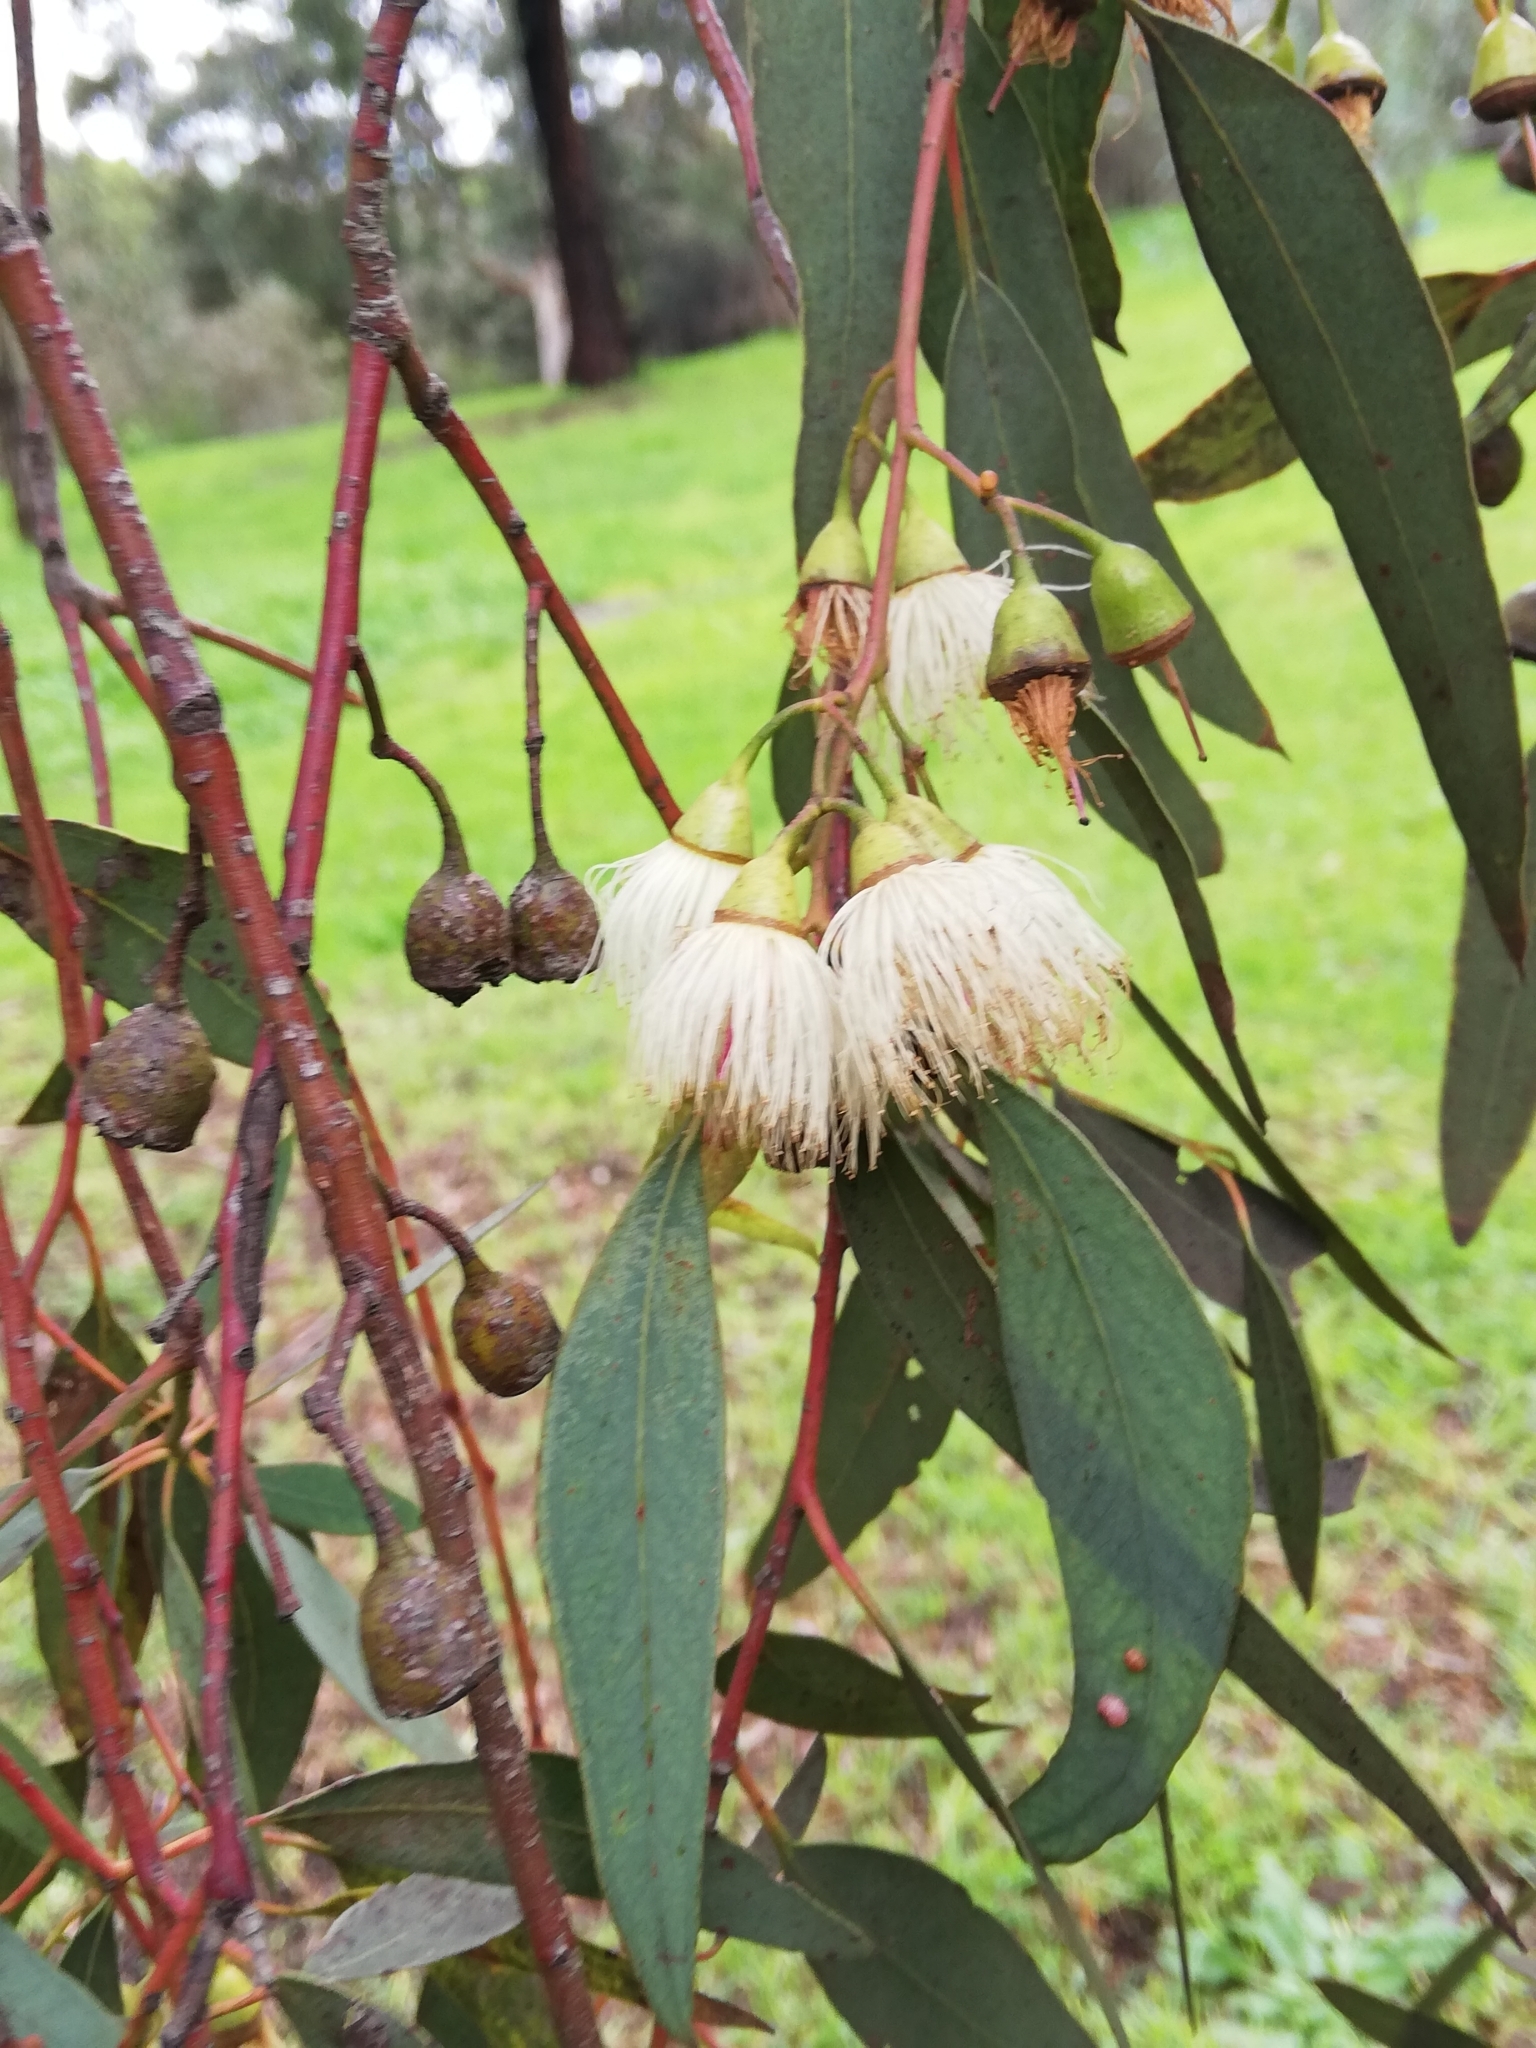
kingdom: Plantae
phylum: Tracheophyta
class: Magnoliopsida
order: Myrtales
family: Myrtaceae
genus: Eucalyptus
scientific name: Eucalyptus leucoxylon
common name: Blue gum
